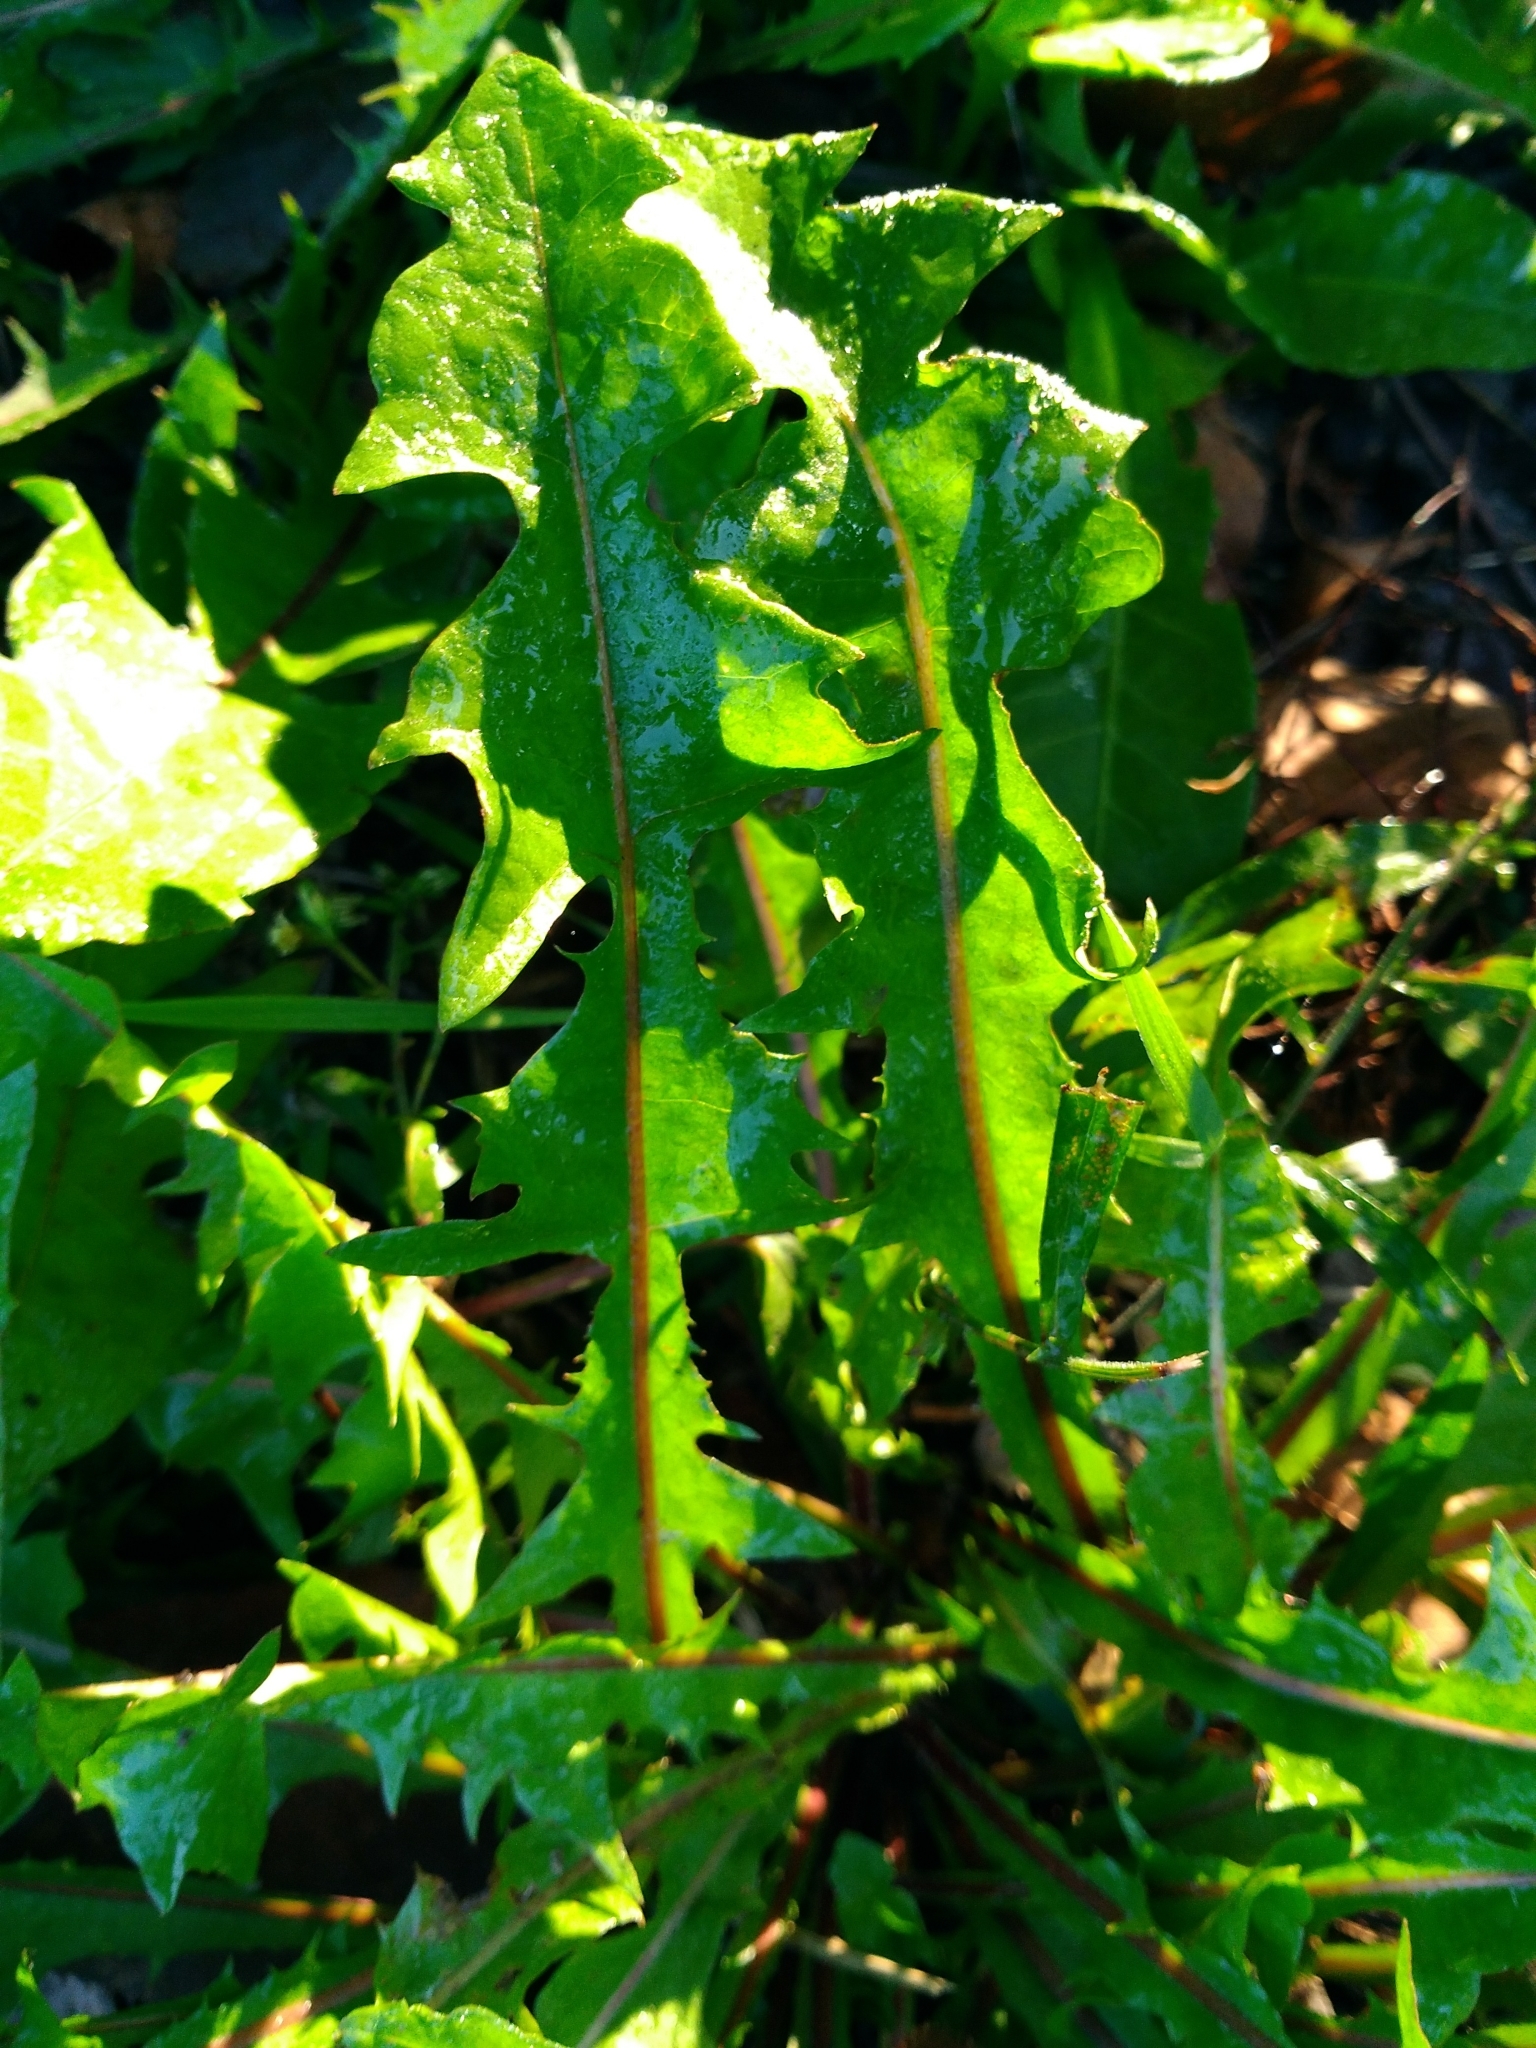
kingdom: Plantae
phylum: Tracheophyta
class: Magnoliopsida
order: Asterales
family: Asteraceae
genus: Taraxacum
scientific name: Taraxacum officinale
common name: Common dandelion
